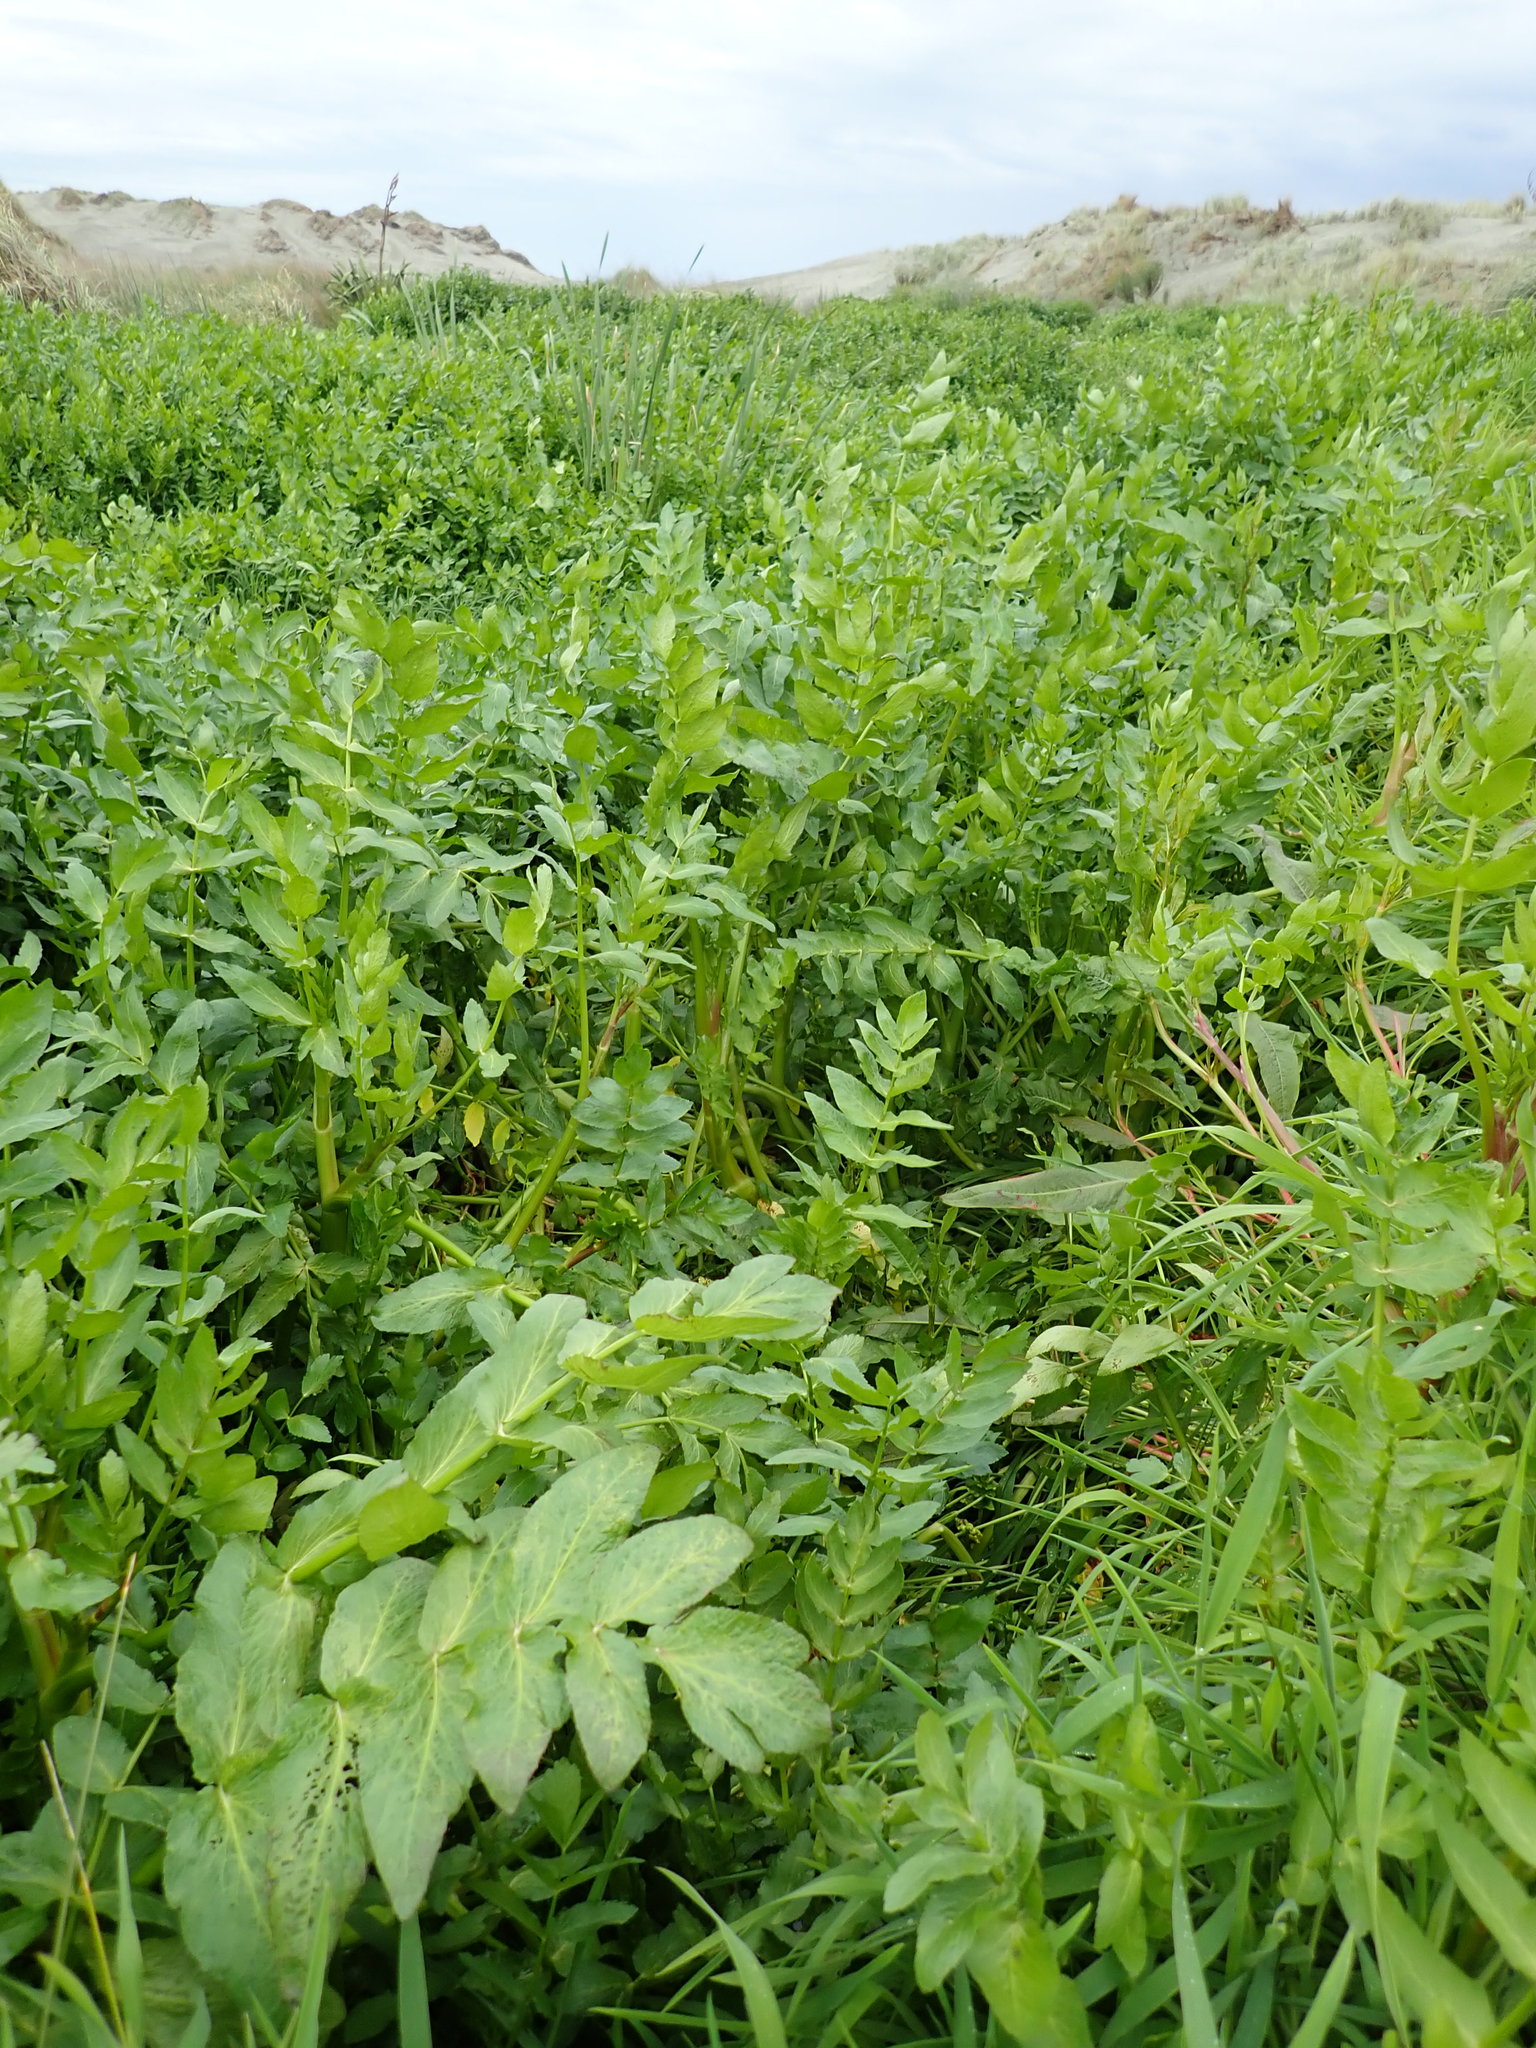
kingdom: Plantae
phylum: Tracheophyta
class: Magnoliopsida
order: Apiales
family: Apiaceae
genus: Helosciadium
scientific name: Helosciadium nodiflorum
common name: Fool's-watercress
